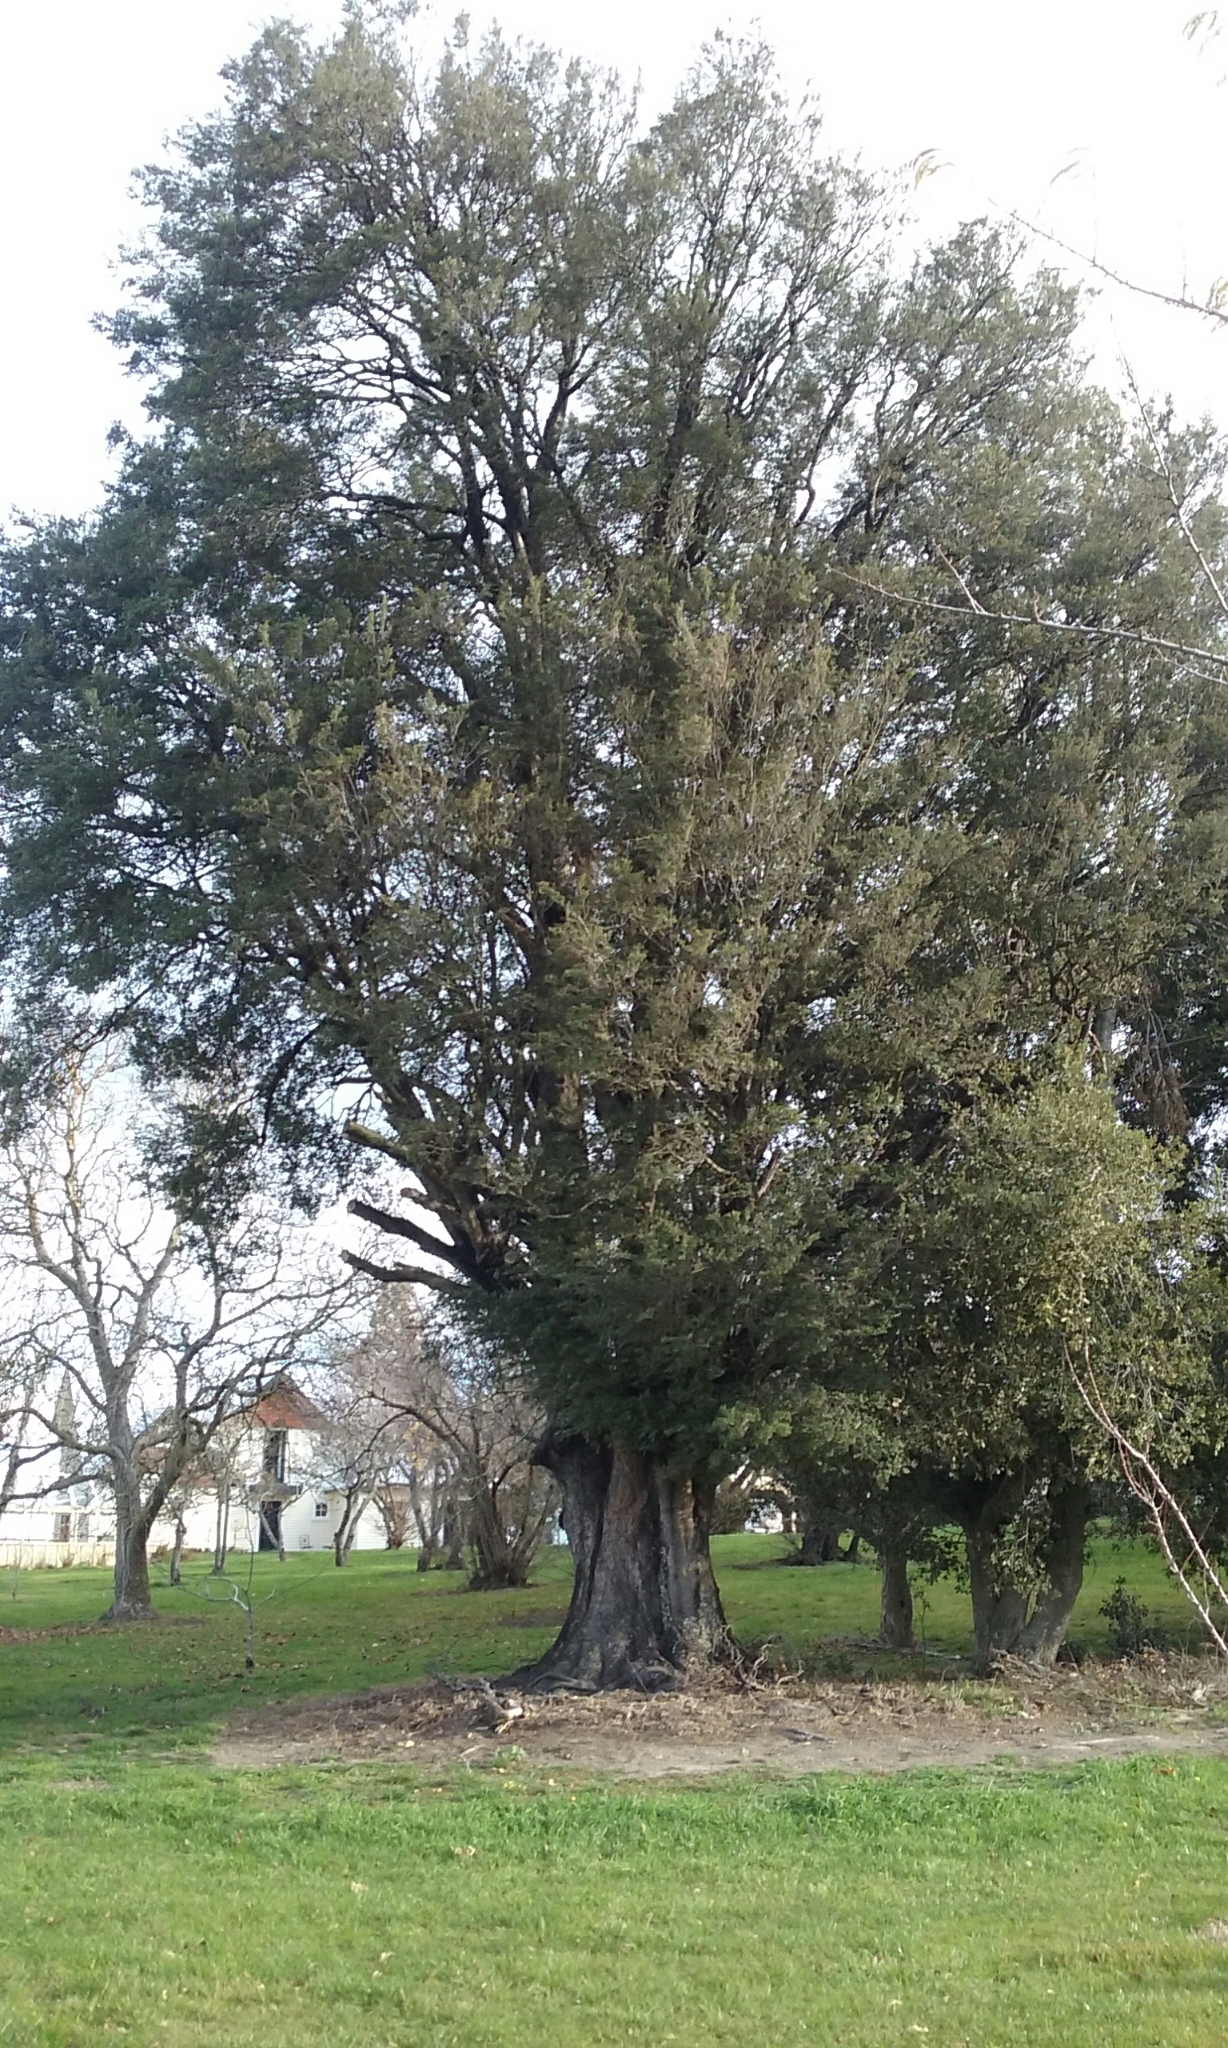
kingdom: Plantae
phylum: Tracheophyta
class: Magnoliopsida
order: Fagales
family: Nothofagaceae
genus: Nothofagus
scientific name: Nothofagus cliffortioides
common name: Mountain beech
